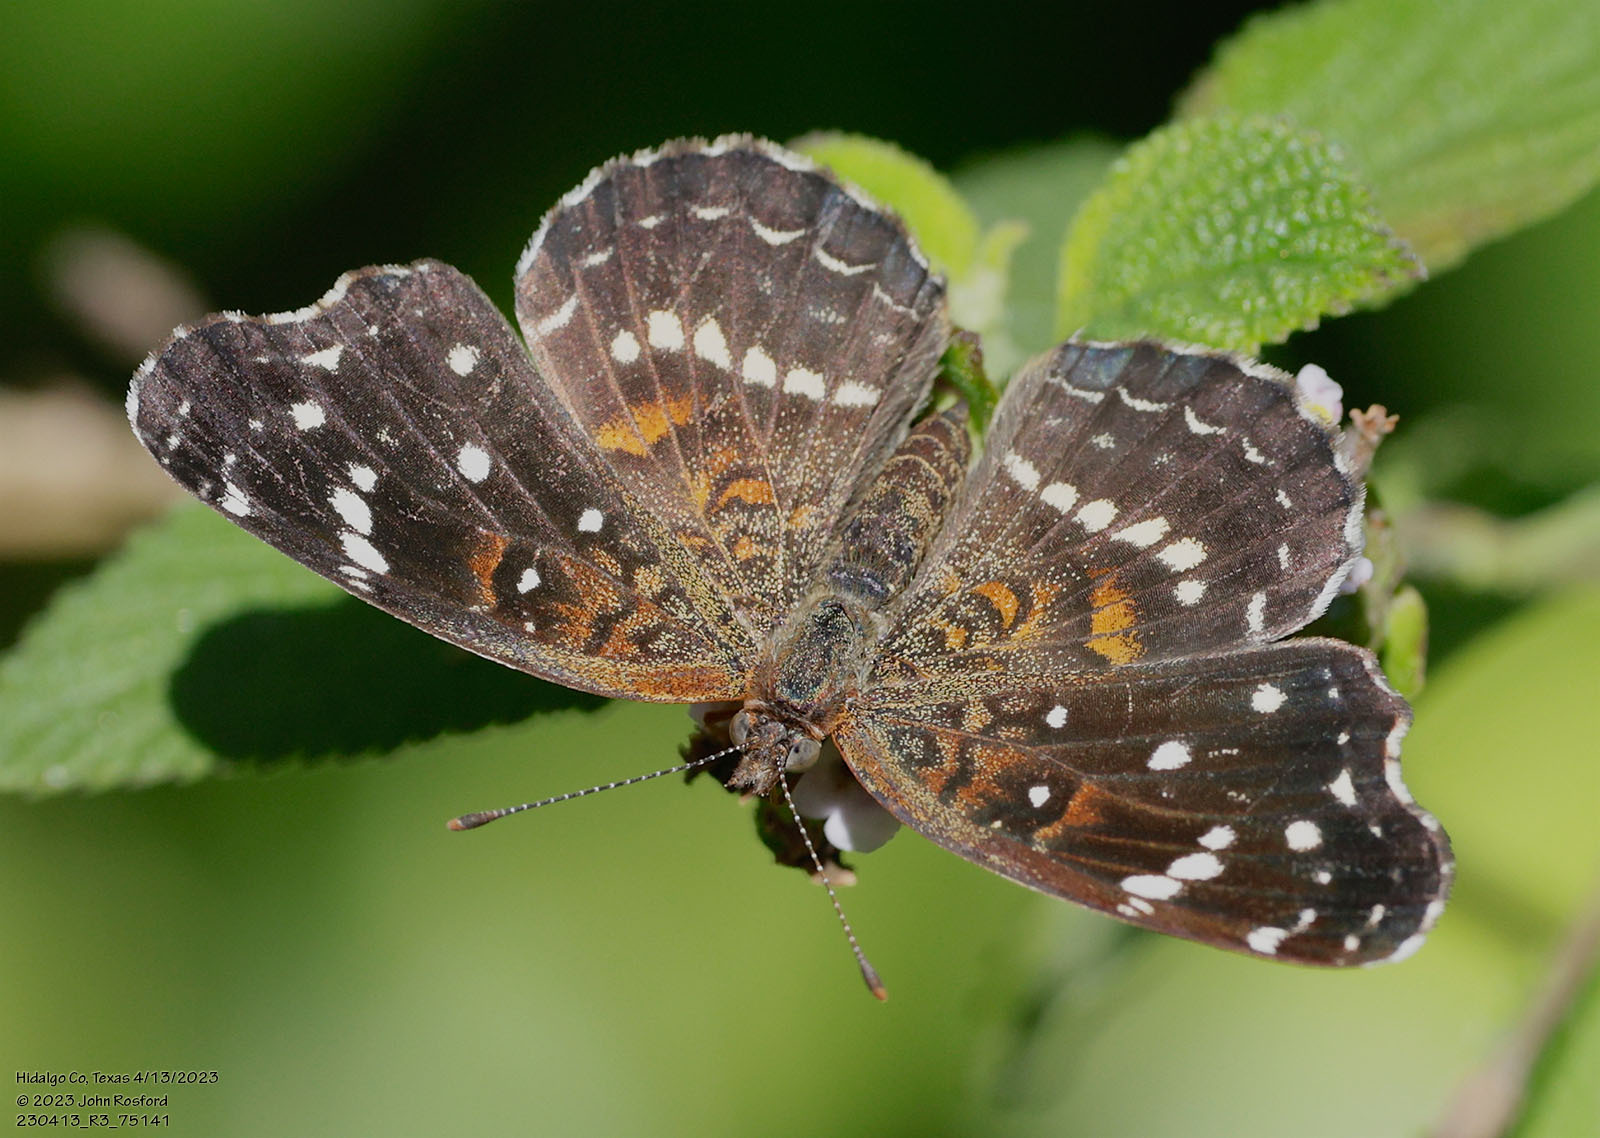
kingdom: Animalia
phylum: Arthropoda
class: Insecta
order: Lepidoptera
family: Nymphalidae
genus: Anthanassa
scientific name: Anthanassa texana
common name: Texan crescent
